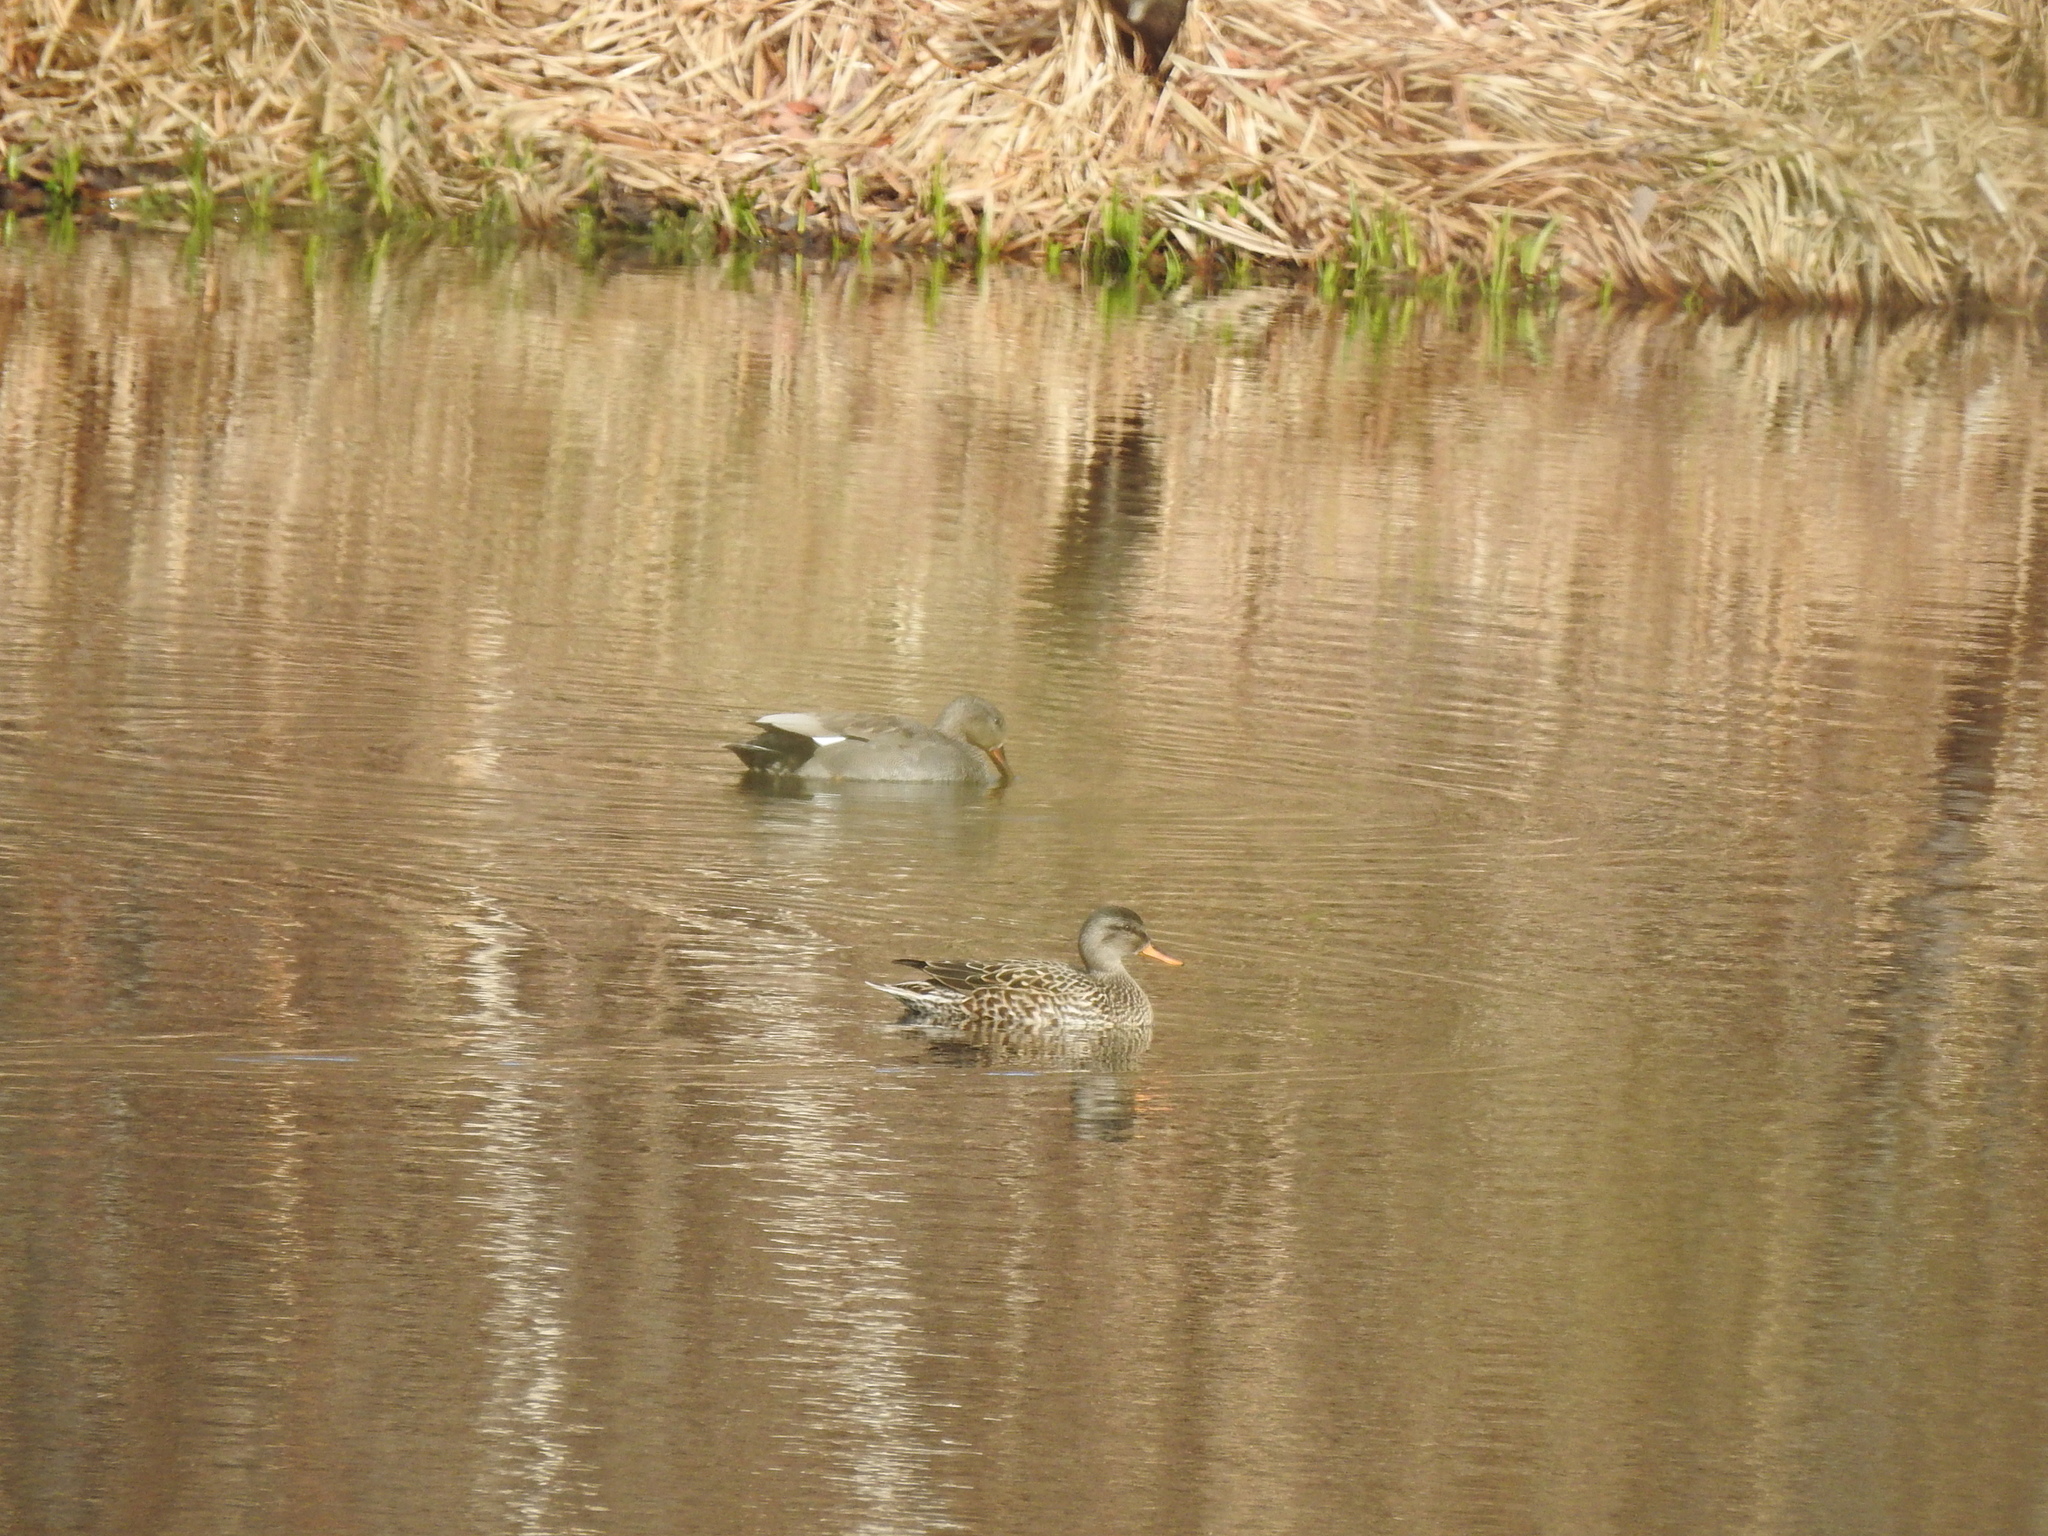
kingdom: Animalia
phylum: Chordata
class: Aves
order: Anseriformes
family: Anatidae
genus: Mareca
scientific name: Mareca strepera
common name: Gadwall
